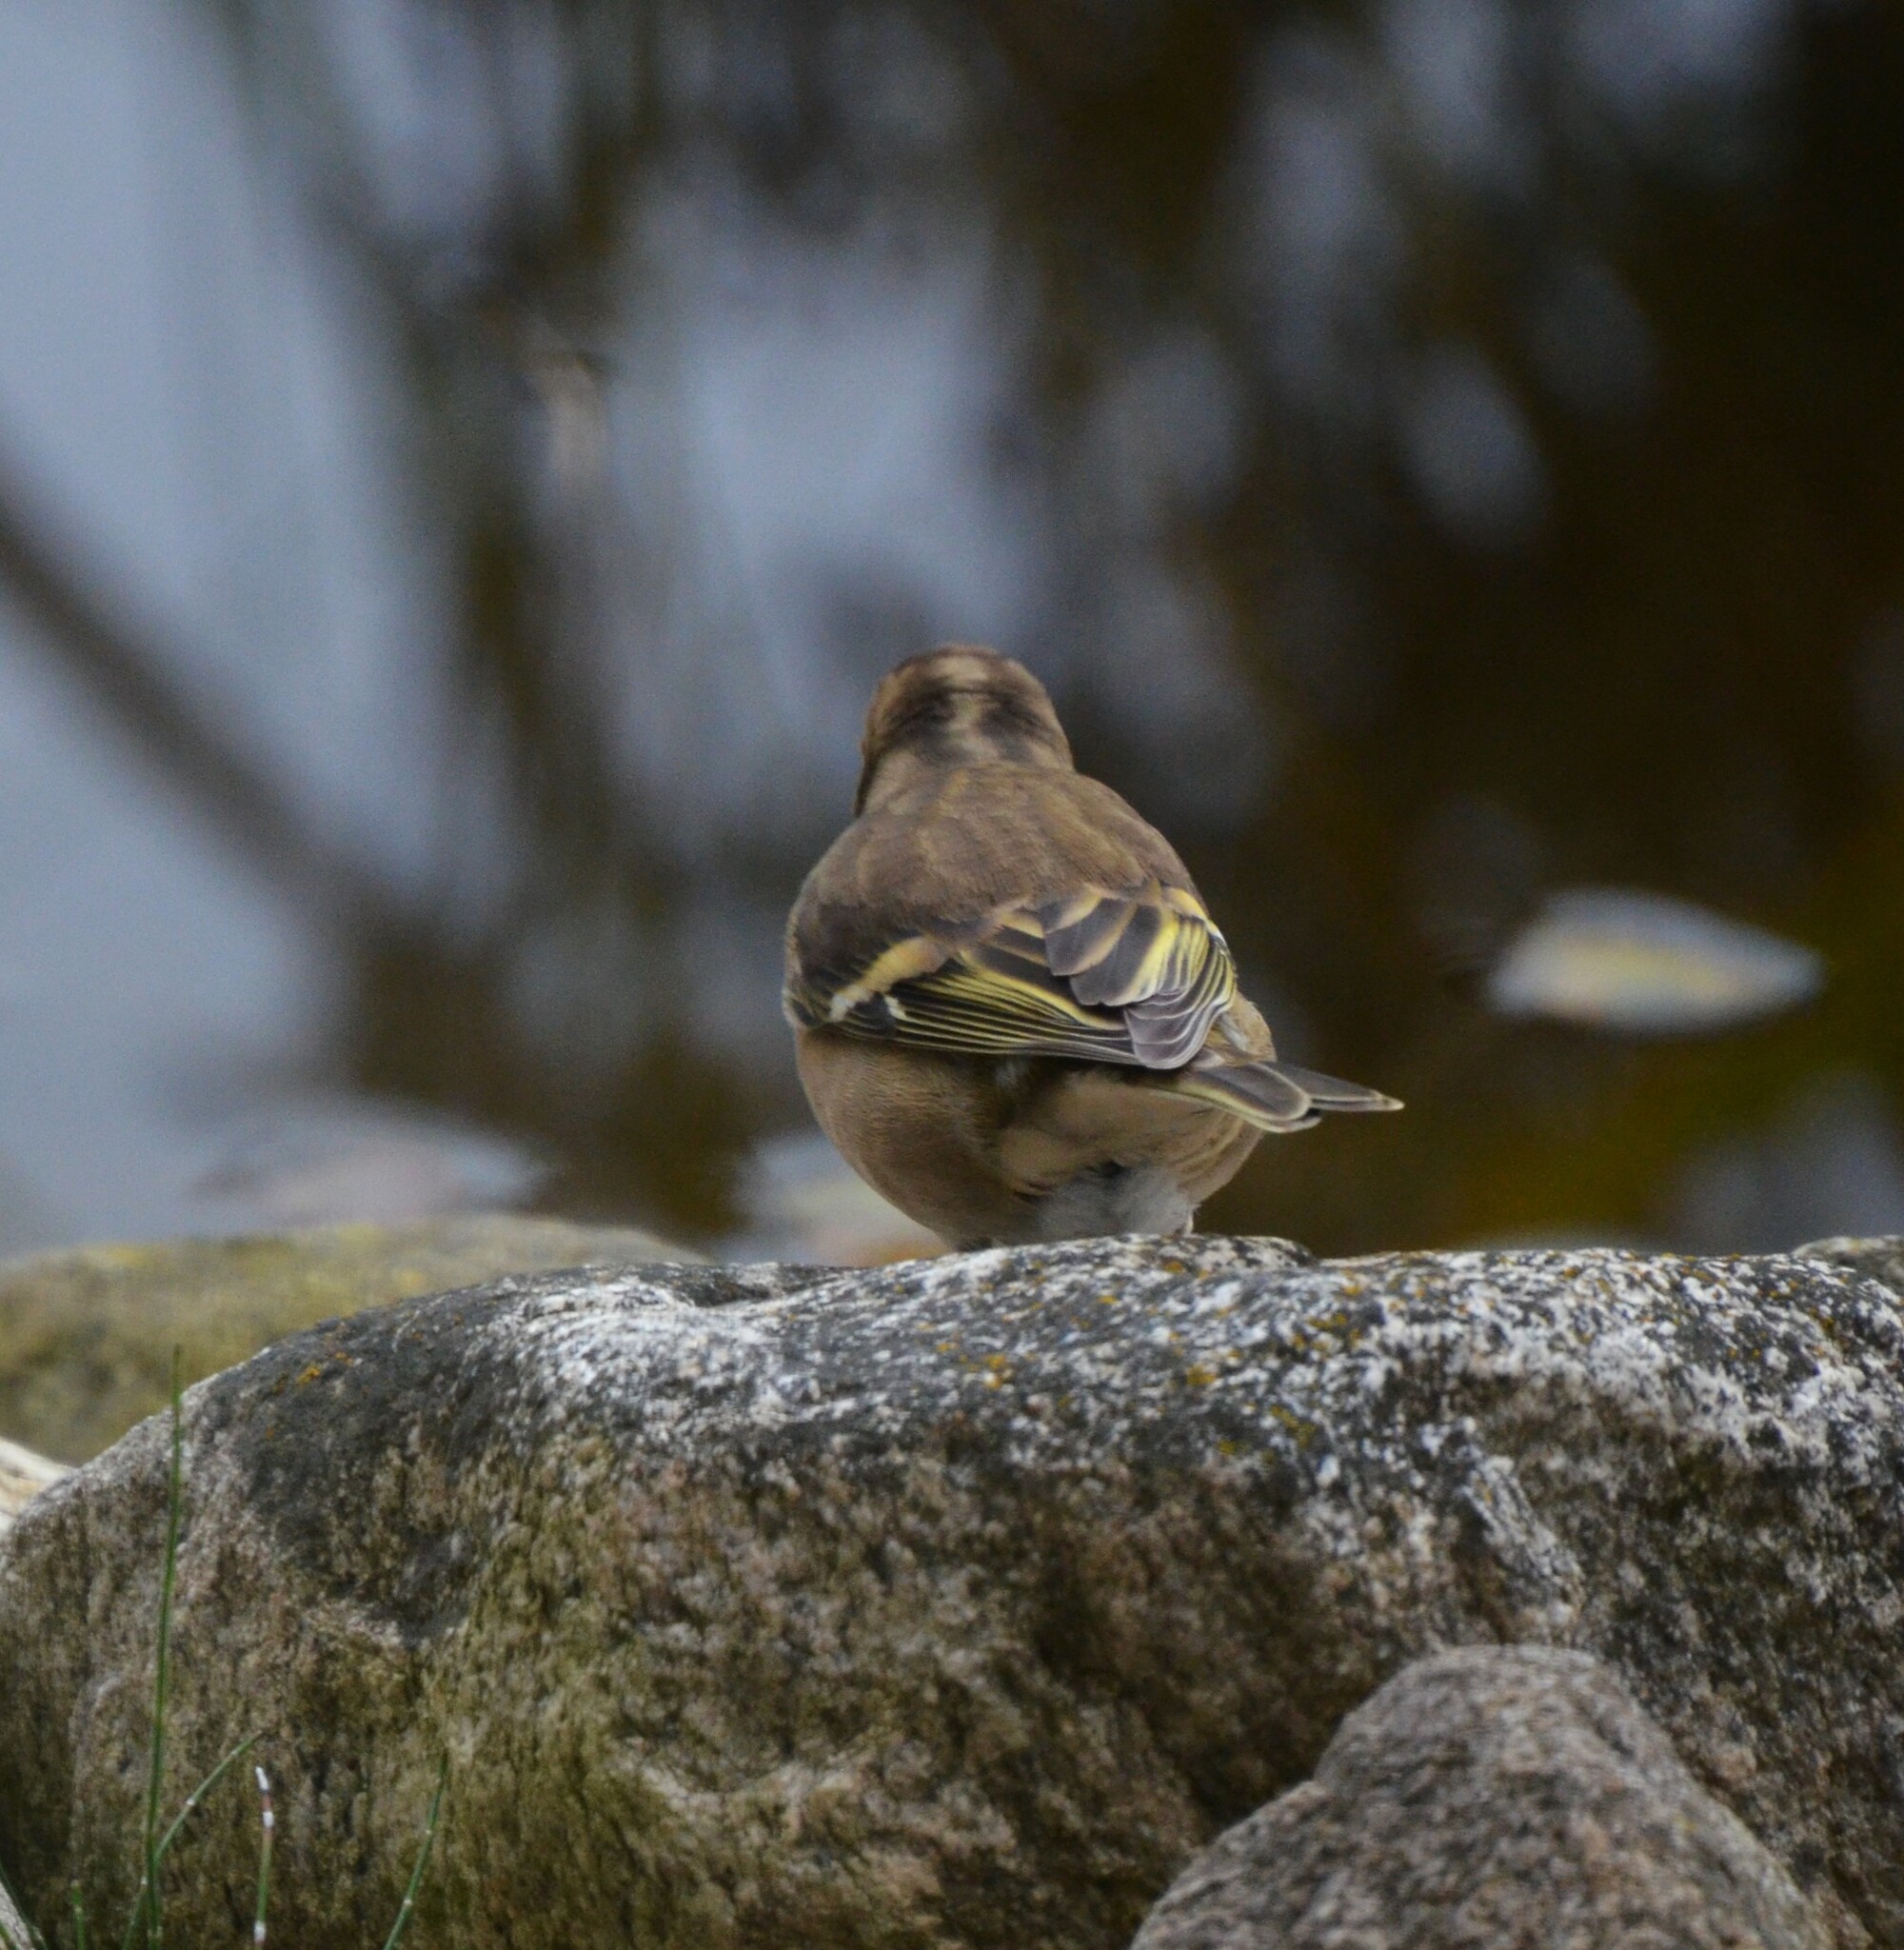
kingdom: Animalia
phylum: Chordata
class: Aves
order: Passeriformes
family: Fringillidae
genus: Fringilla
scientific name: Fringilla coelebs
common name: Common chaffinch
